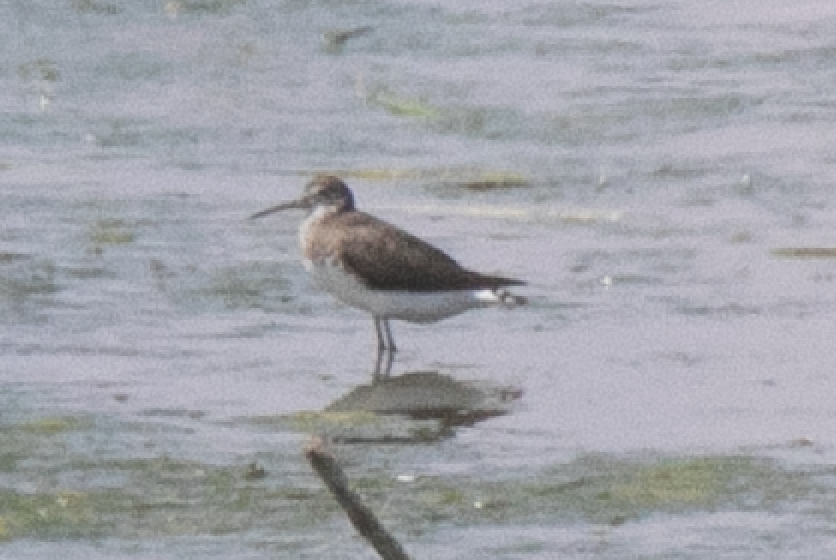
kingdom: Animalia
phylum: Chordata
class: Aves
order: Charadriiformes
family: Scolopacidae
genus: Tringa
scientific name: Tringa ochropus
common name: Green sandpiper
